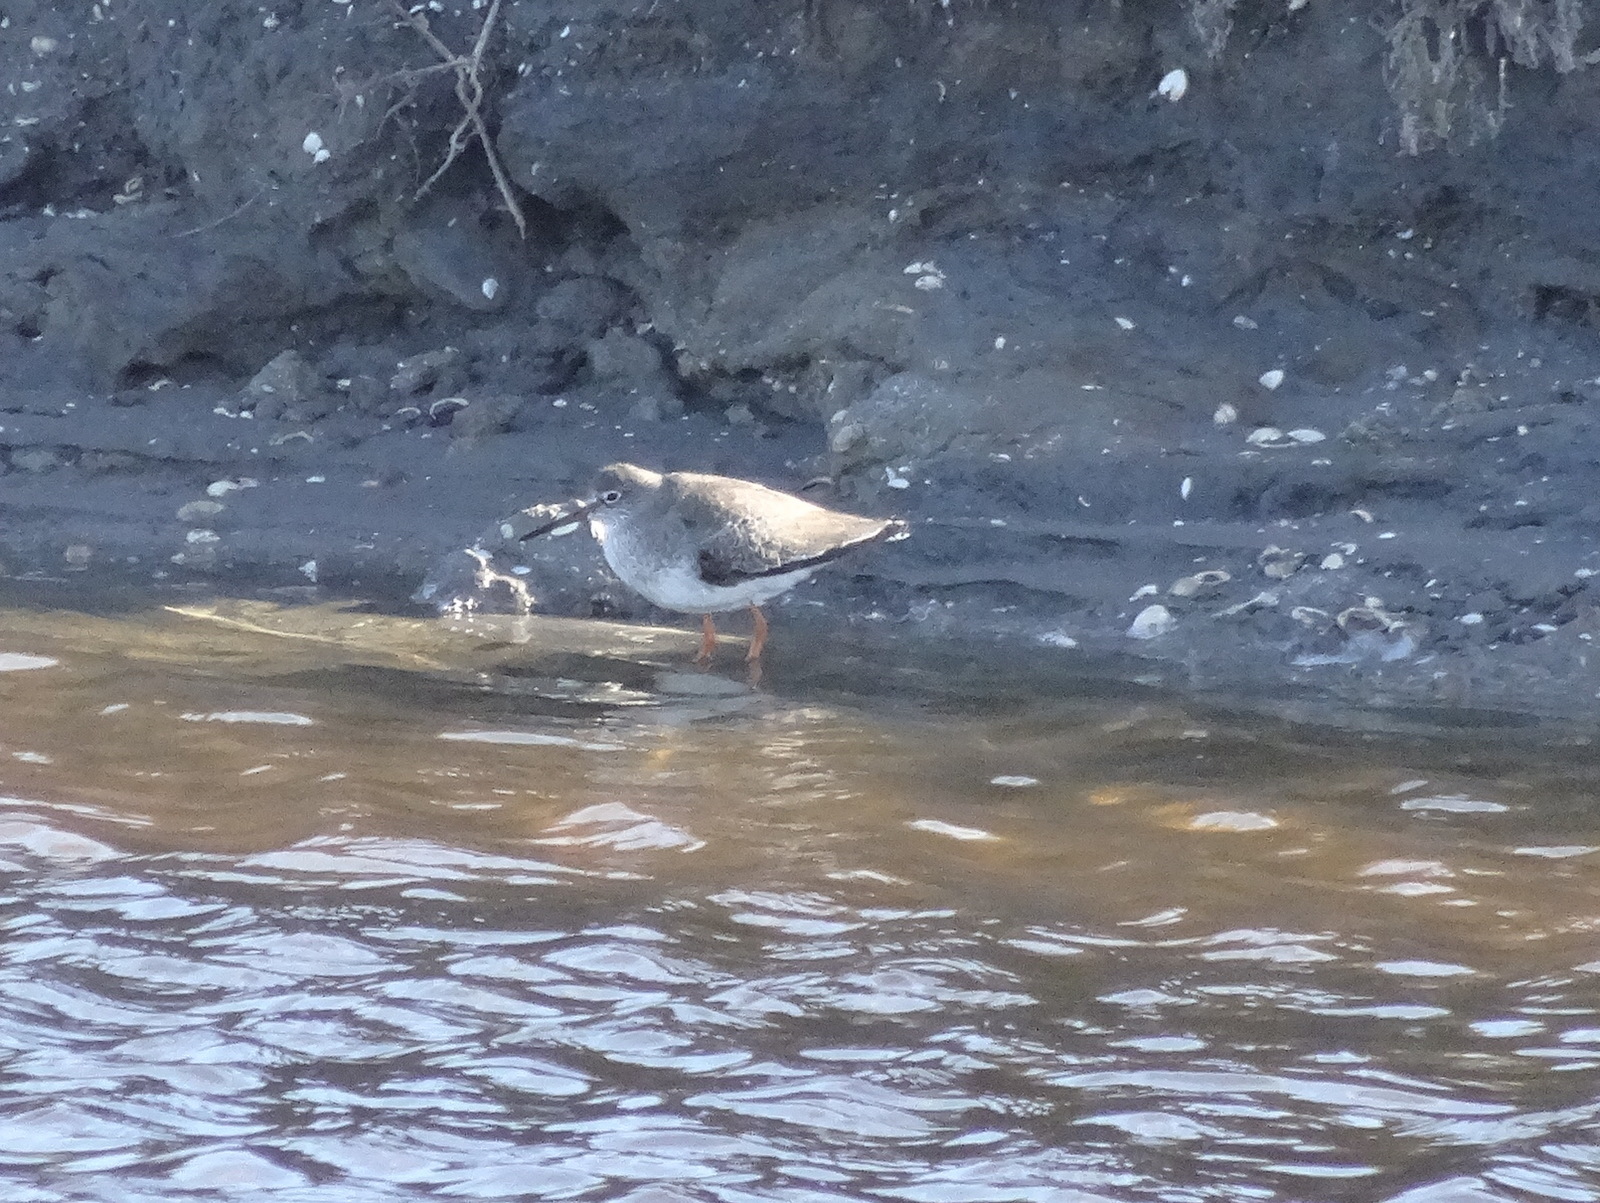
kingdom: Animalia
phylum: Chordata
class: Aves
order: Charadriiformes
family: Scolopacidae
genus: Tringa
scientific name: Tringa totanus
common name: Common redshank
